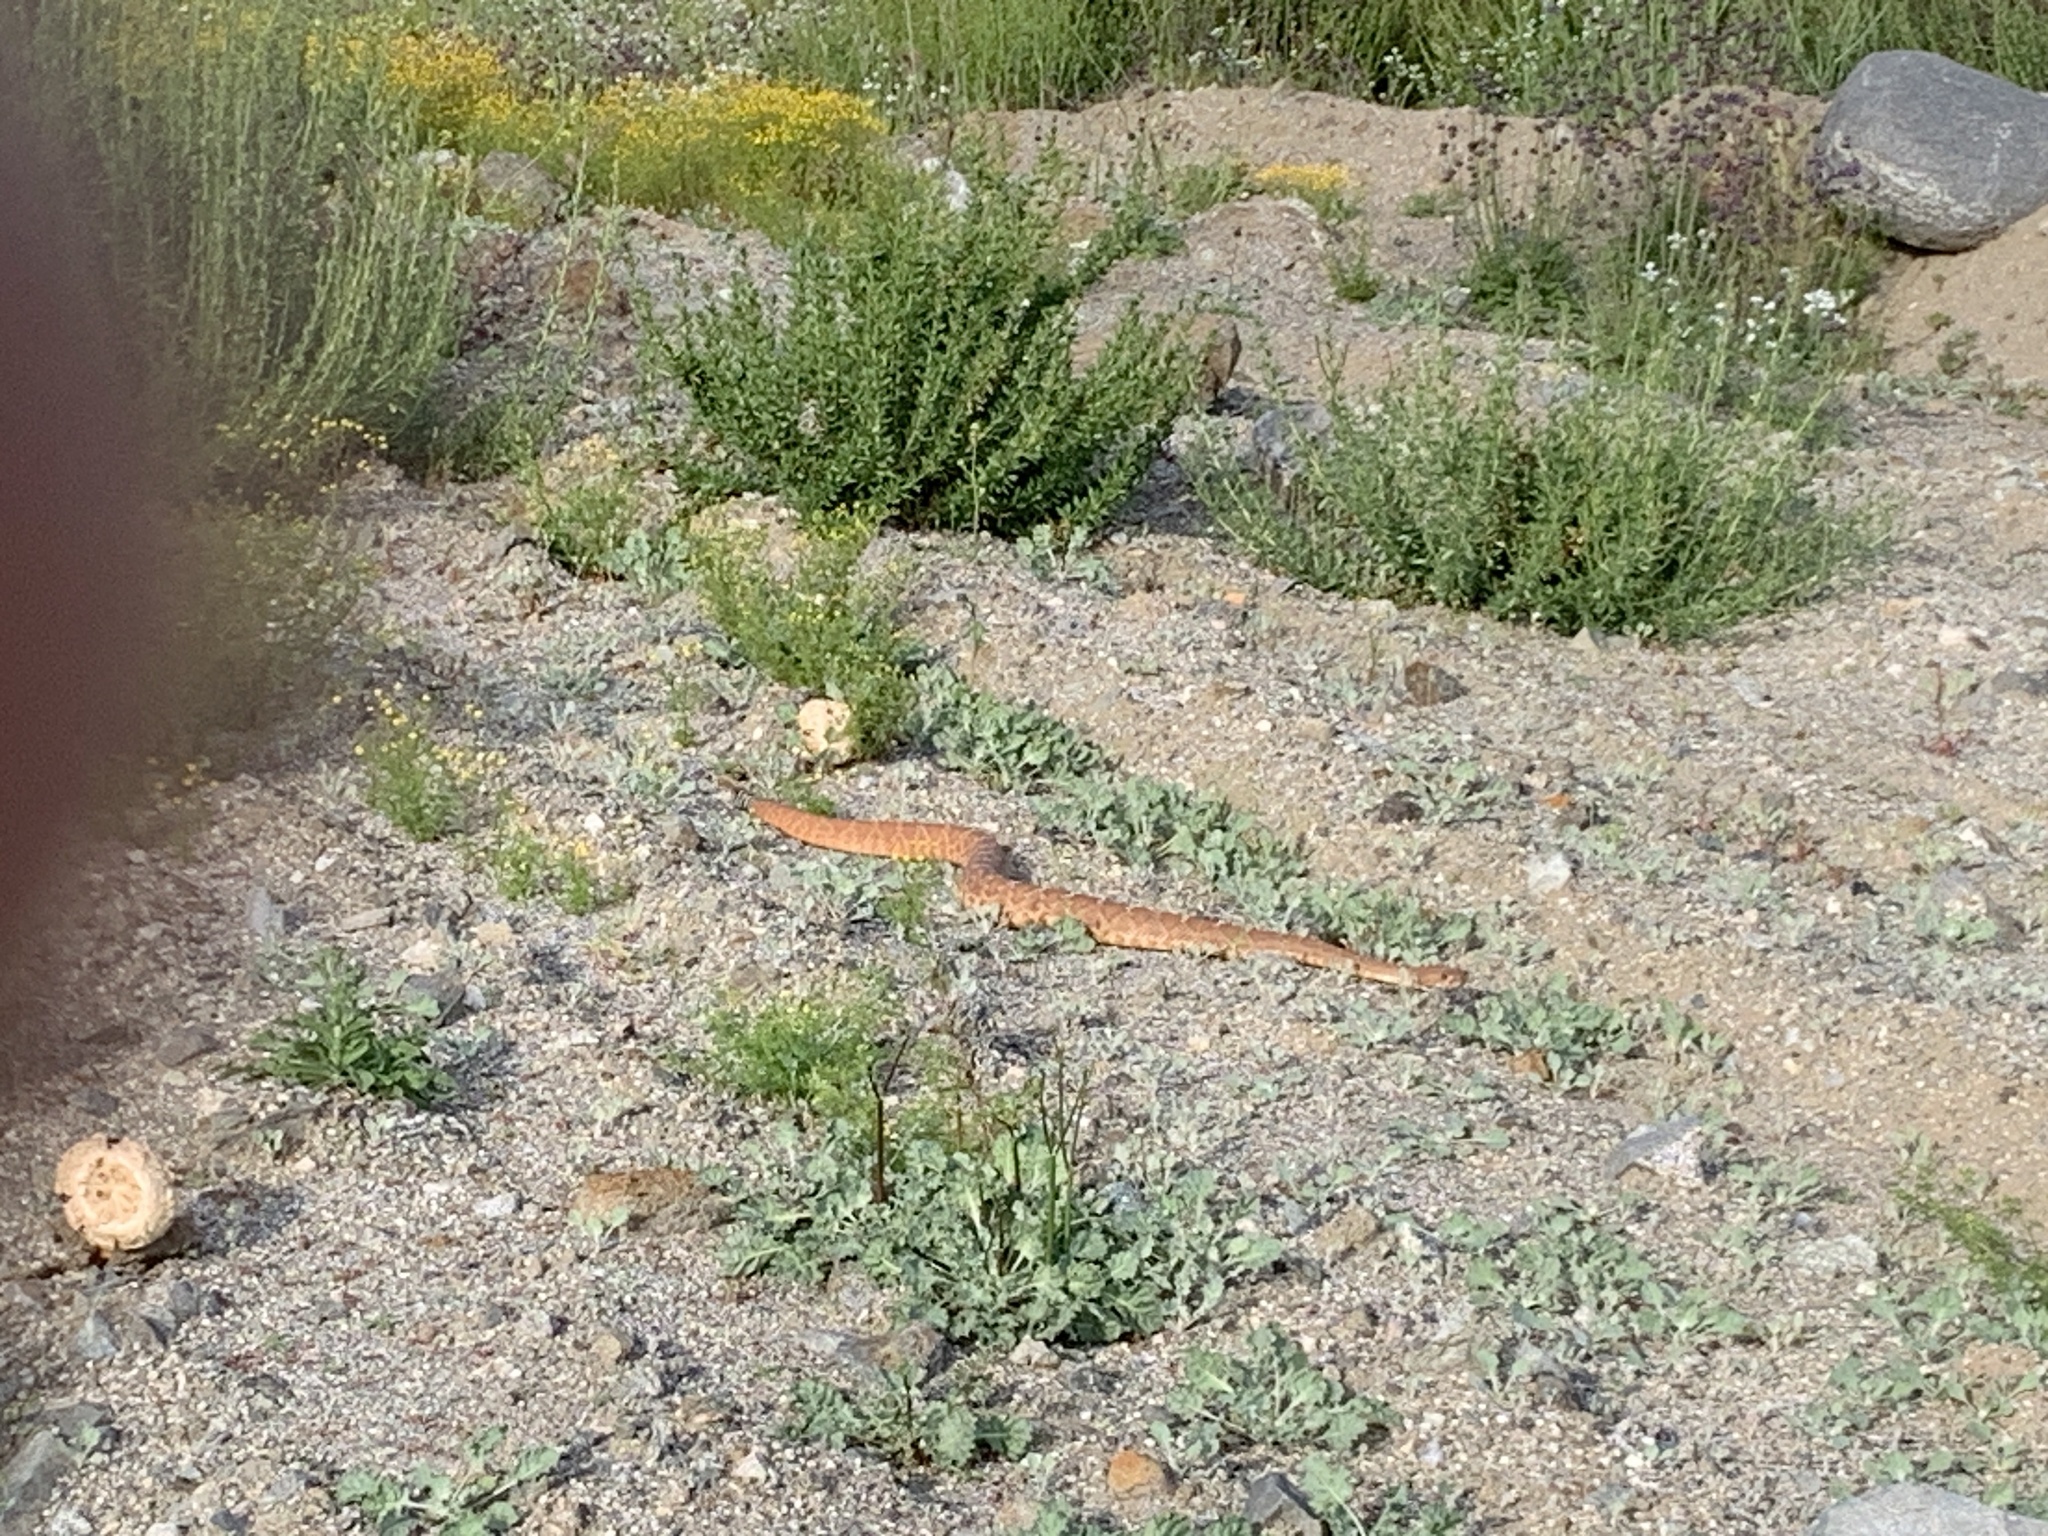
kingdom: Animalia
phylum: Chordata
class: Squamata
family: Viperidae
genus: Crotalus
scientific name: Crotalus ruber
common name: Red diamond rattlesnake
